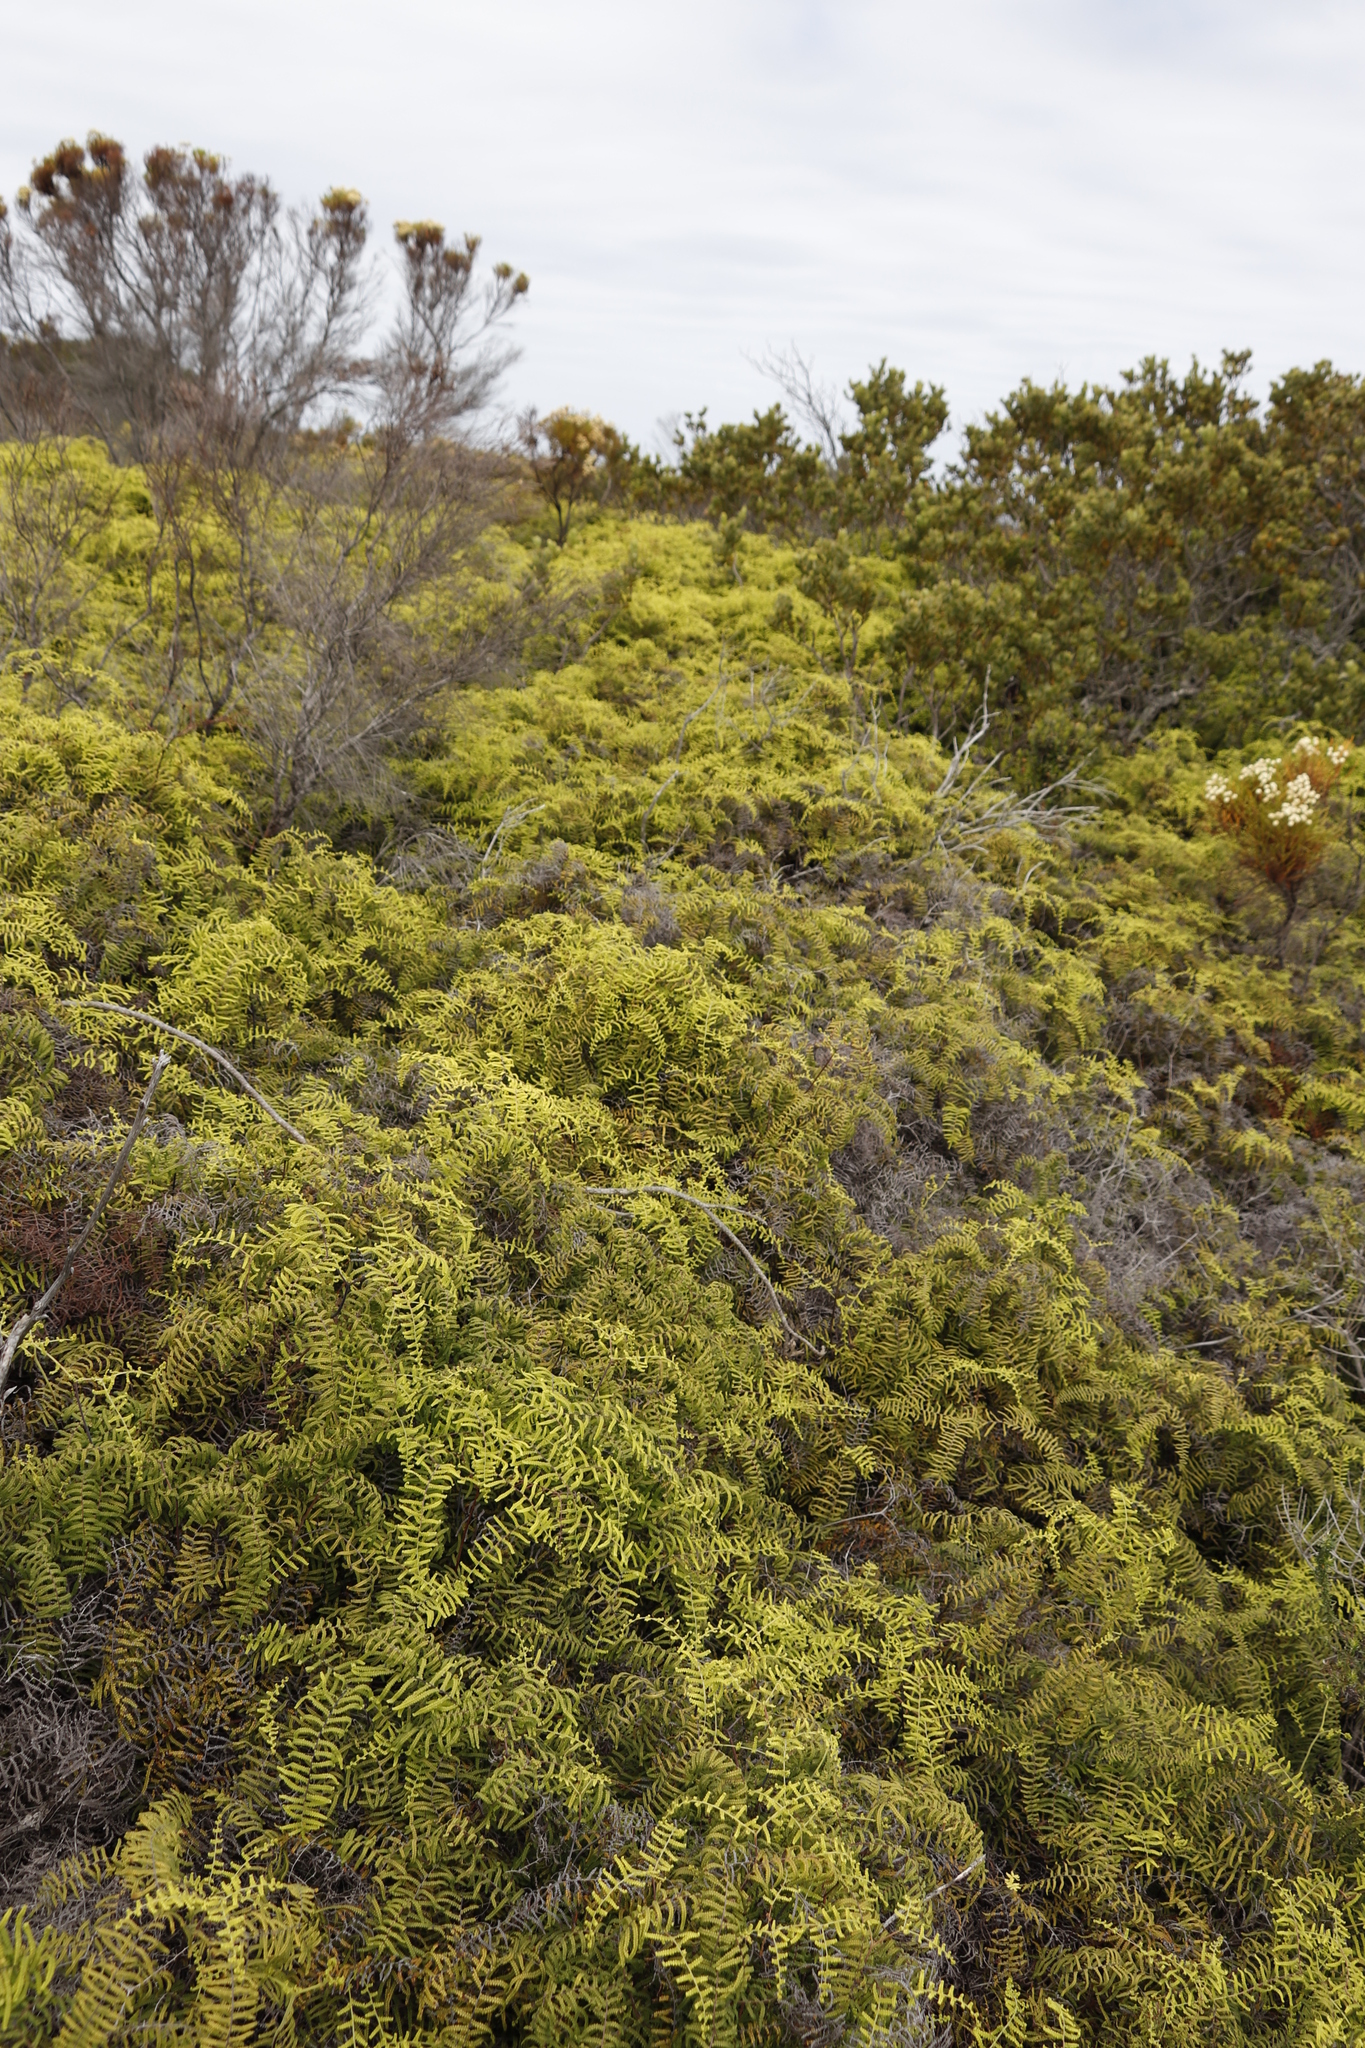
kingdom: Plantae
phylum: Tracheophyta
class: Polypodiopsida
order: Gleicheniales
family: Gleicheniaceae
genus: Gleichenia
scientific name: Gleichenia polypodioides
